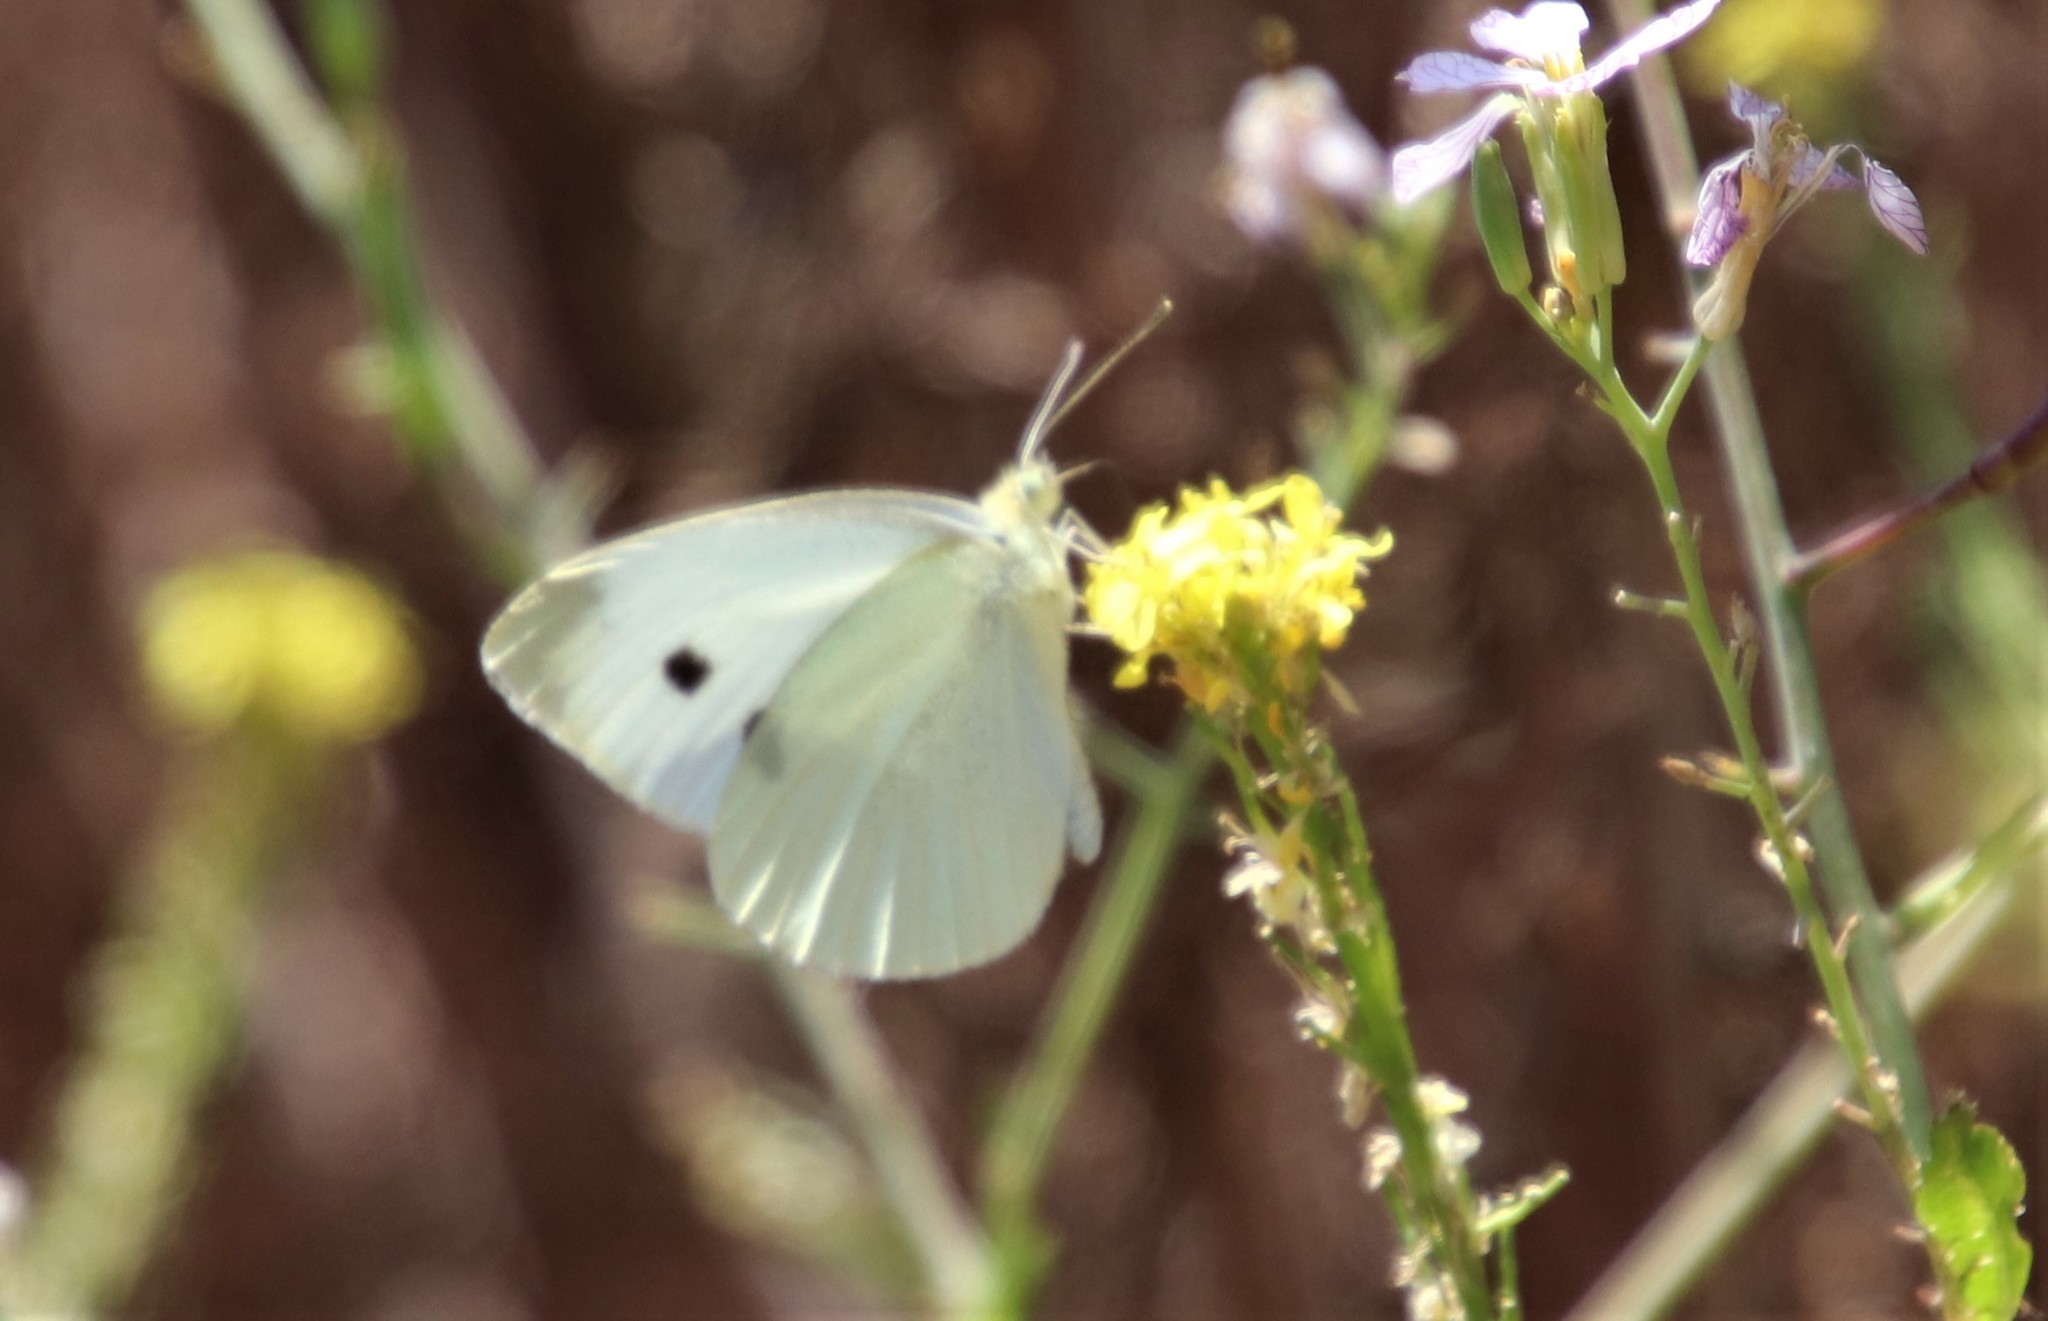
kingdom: Animalia
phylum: Arthropoda
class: Insecta
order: Lepidoptera
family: Pieridae
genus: Pieris
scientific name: Pieris rapae
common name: Small white
